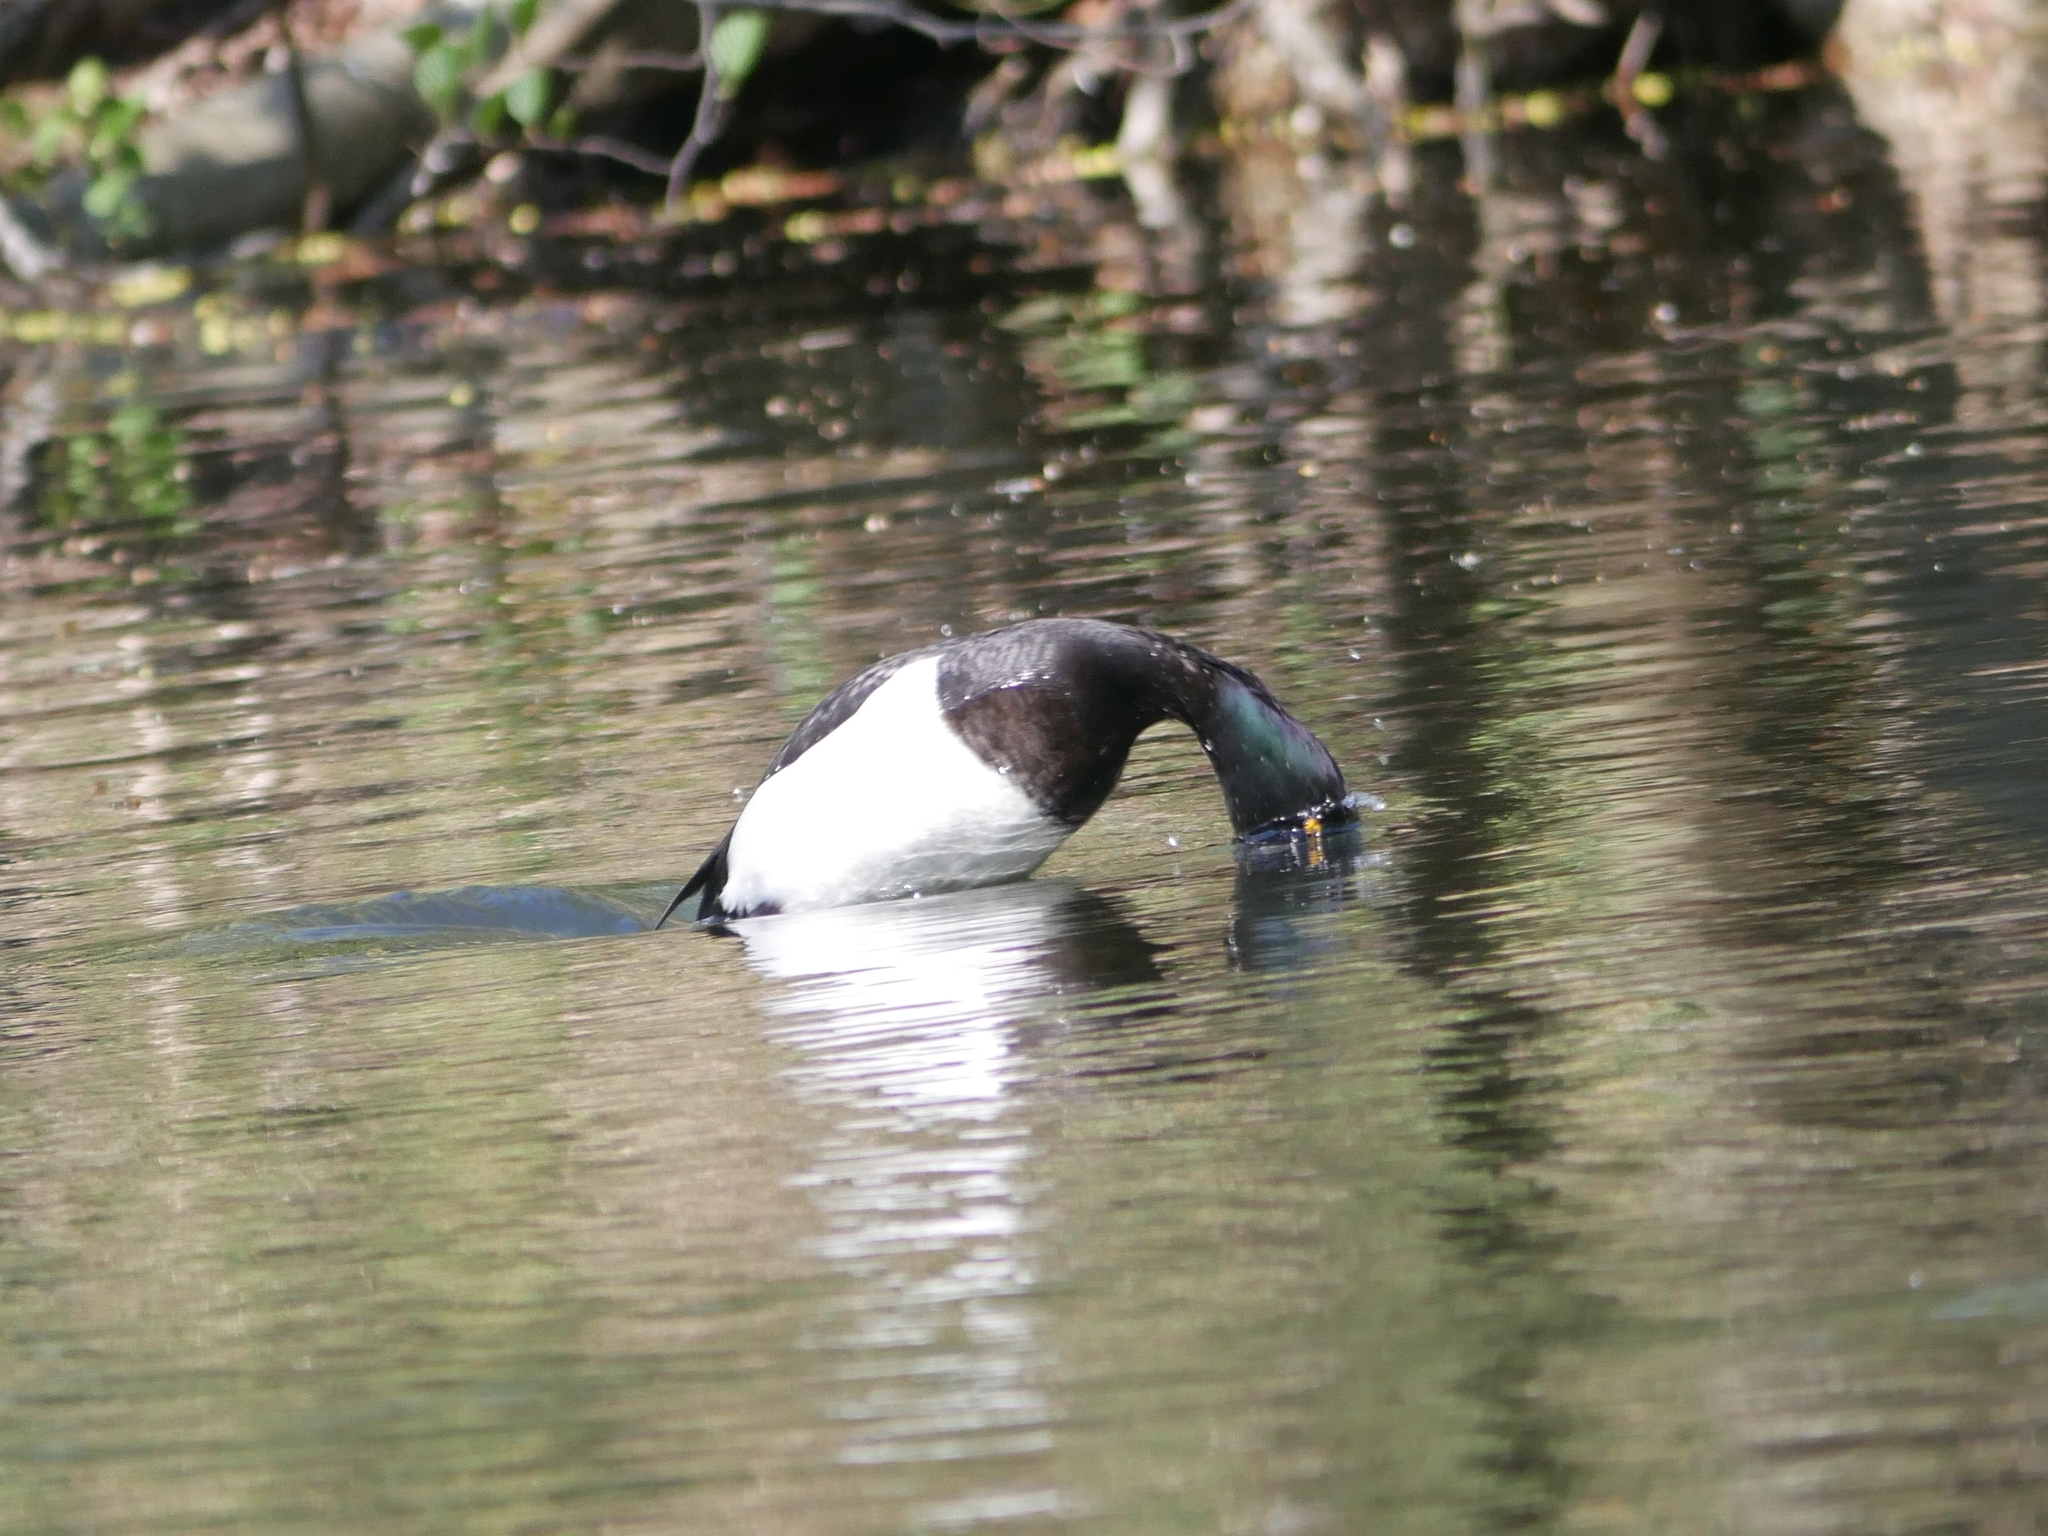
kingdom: Animalia
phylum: Chordata
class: Aves
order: Anseriformes
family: Anatidae
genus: Aythya
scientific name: Aythya fuligula
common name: Tufted duck
